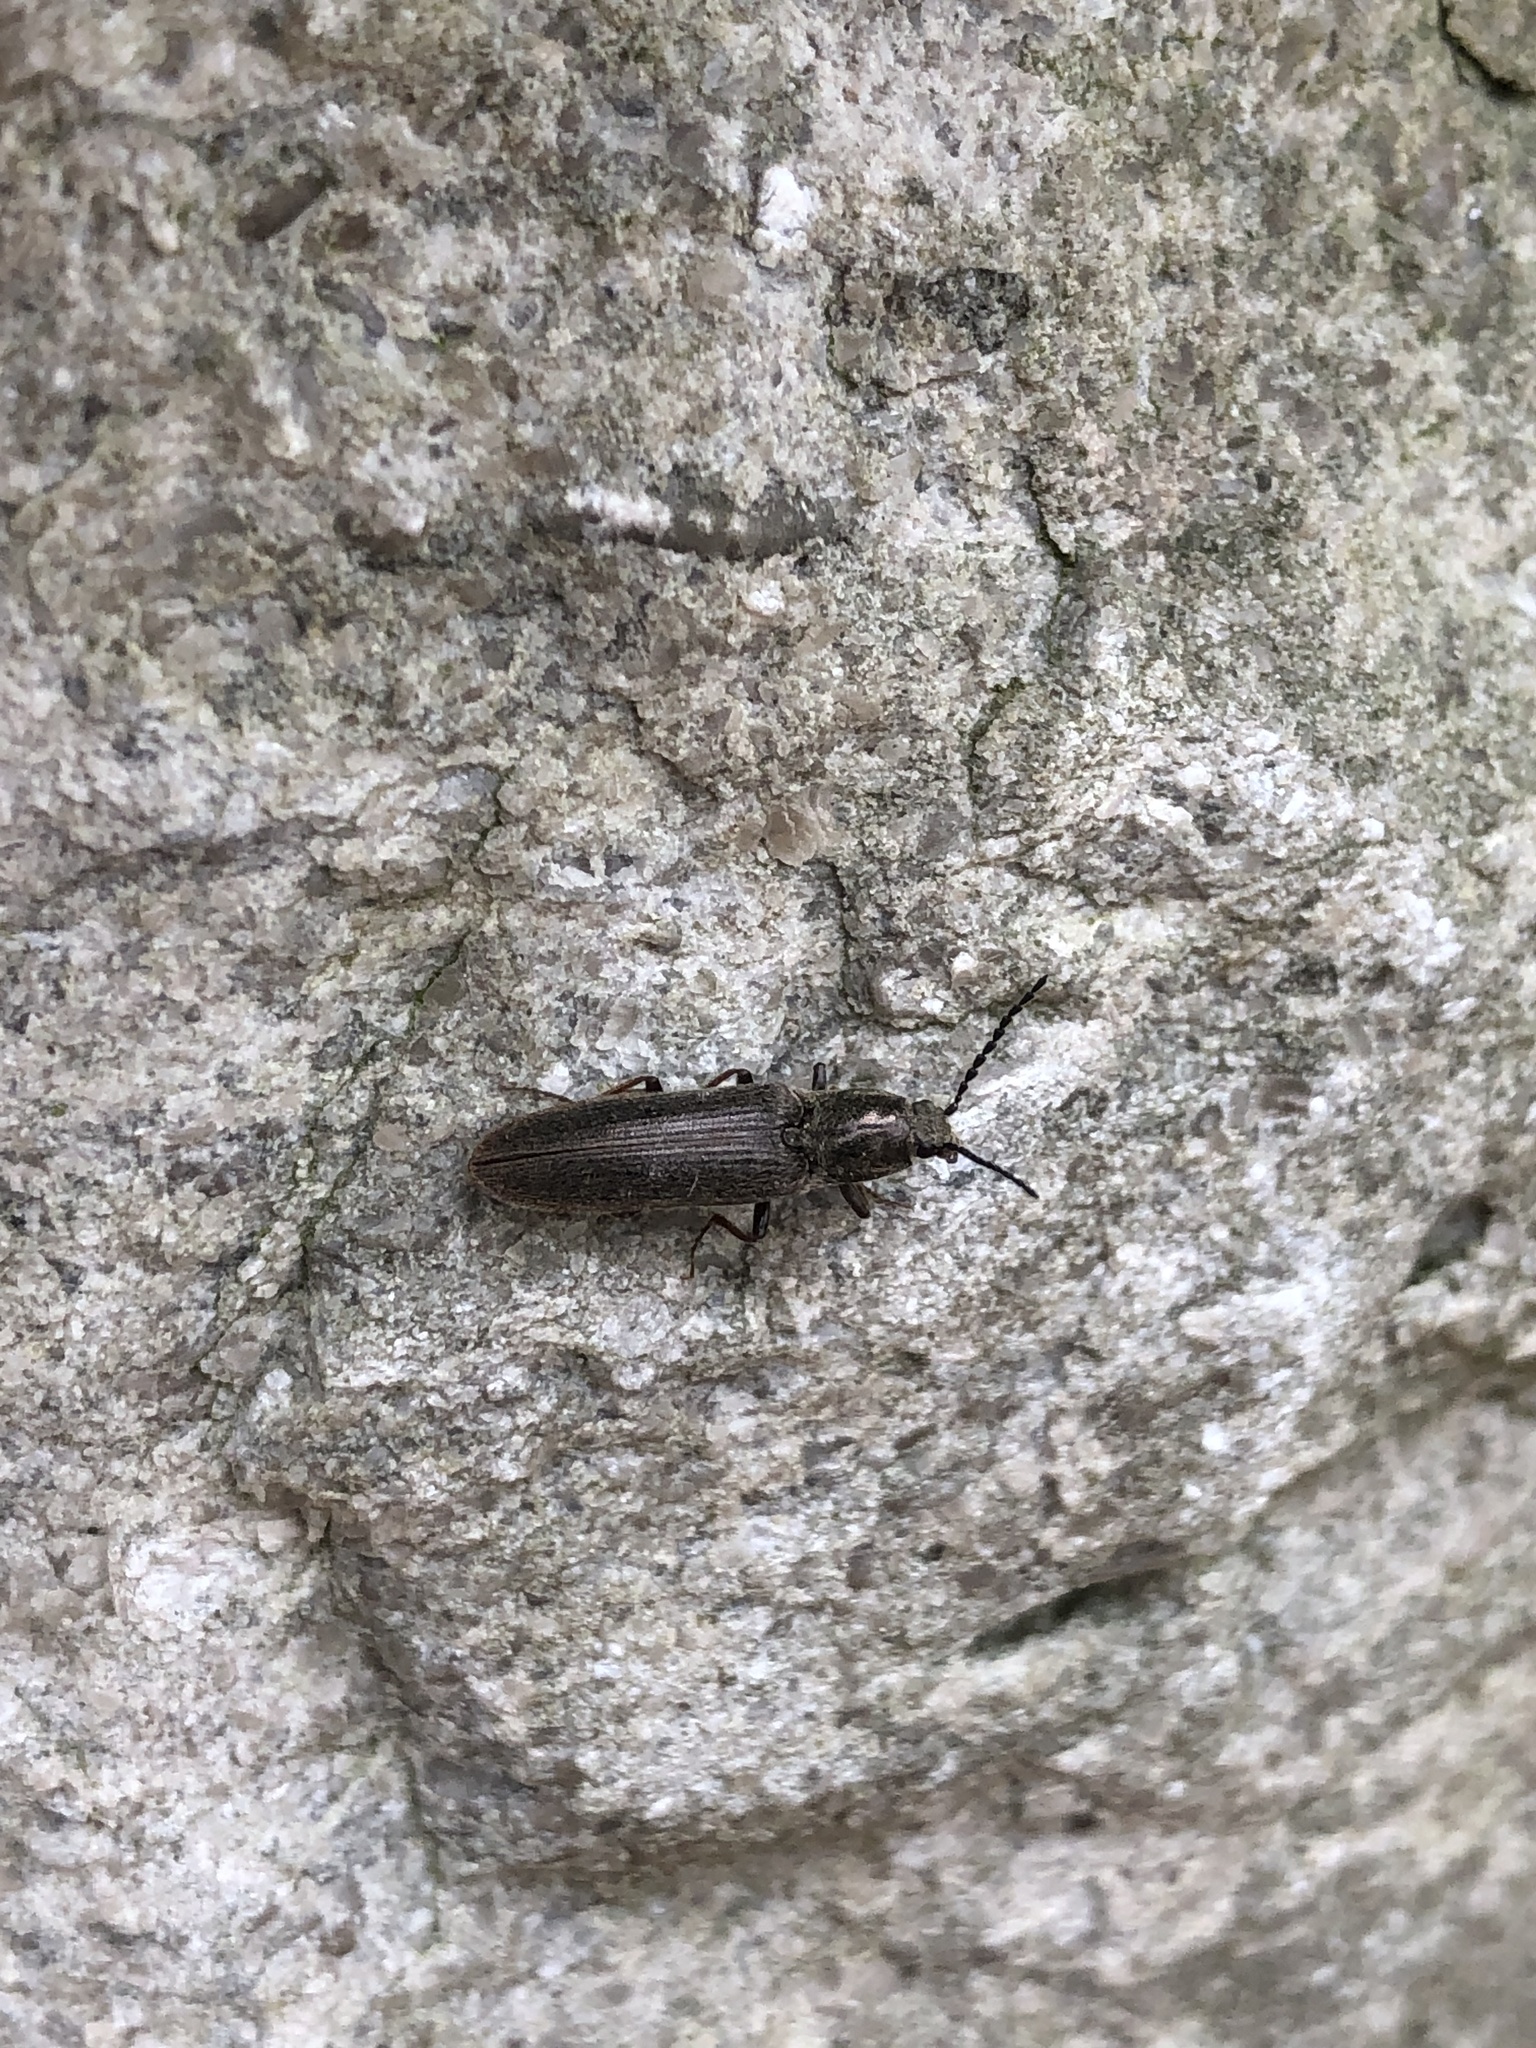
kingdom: Animalia
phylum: Arthropoda
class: Insecta
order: Coleoptera
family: Elateridae
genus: Sylvanelater
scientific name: Sylvanelater cylindriformis
